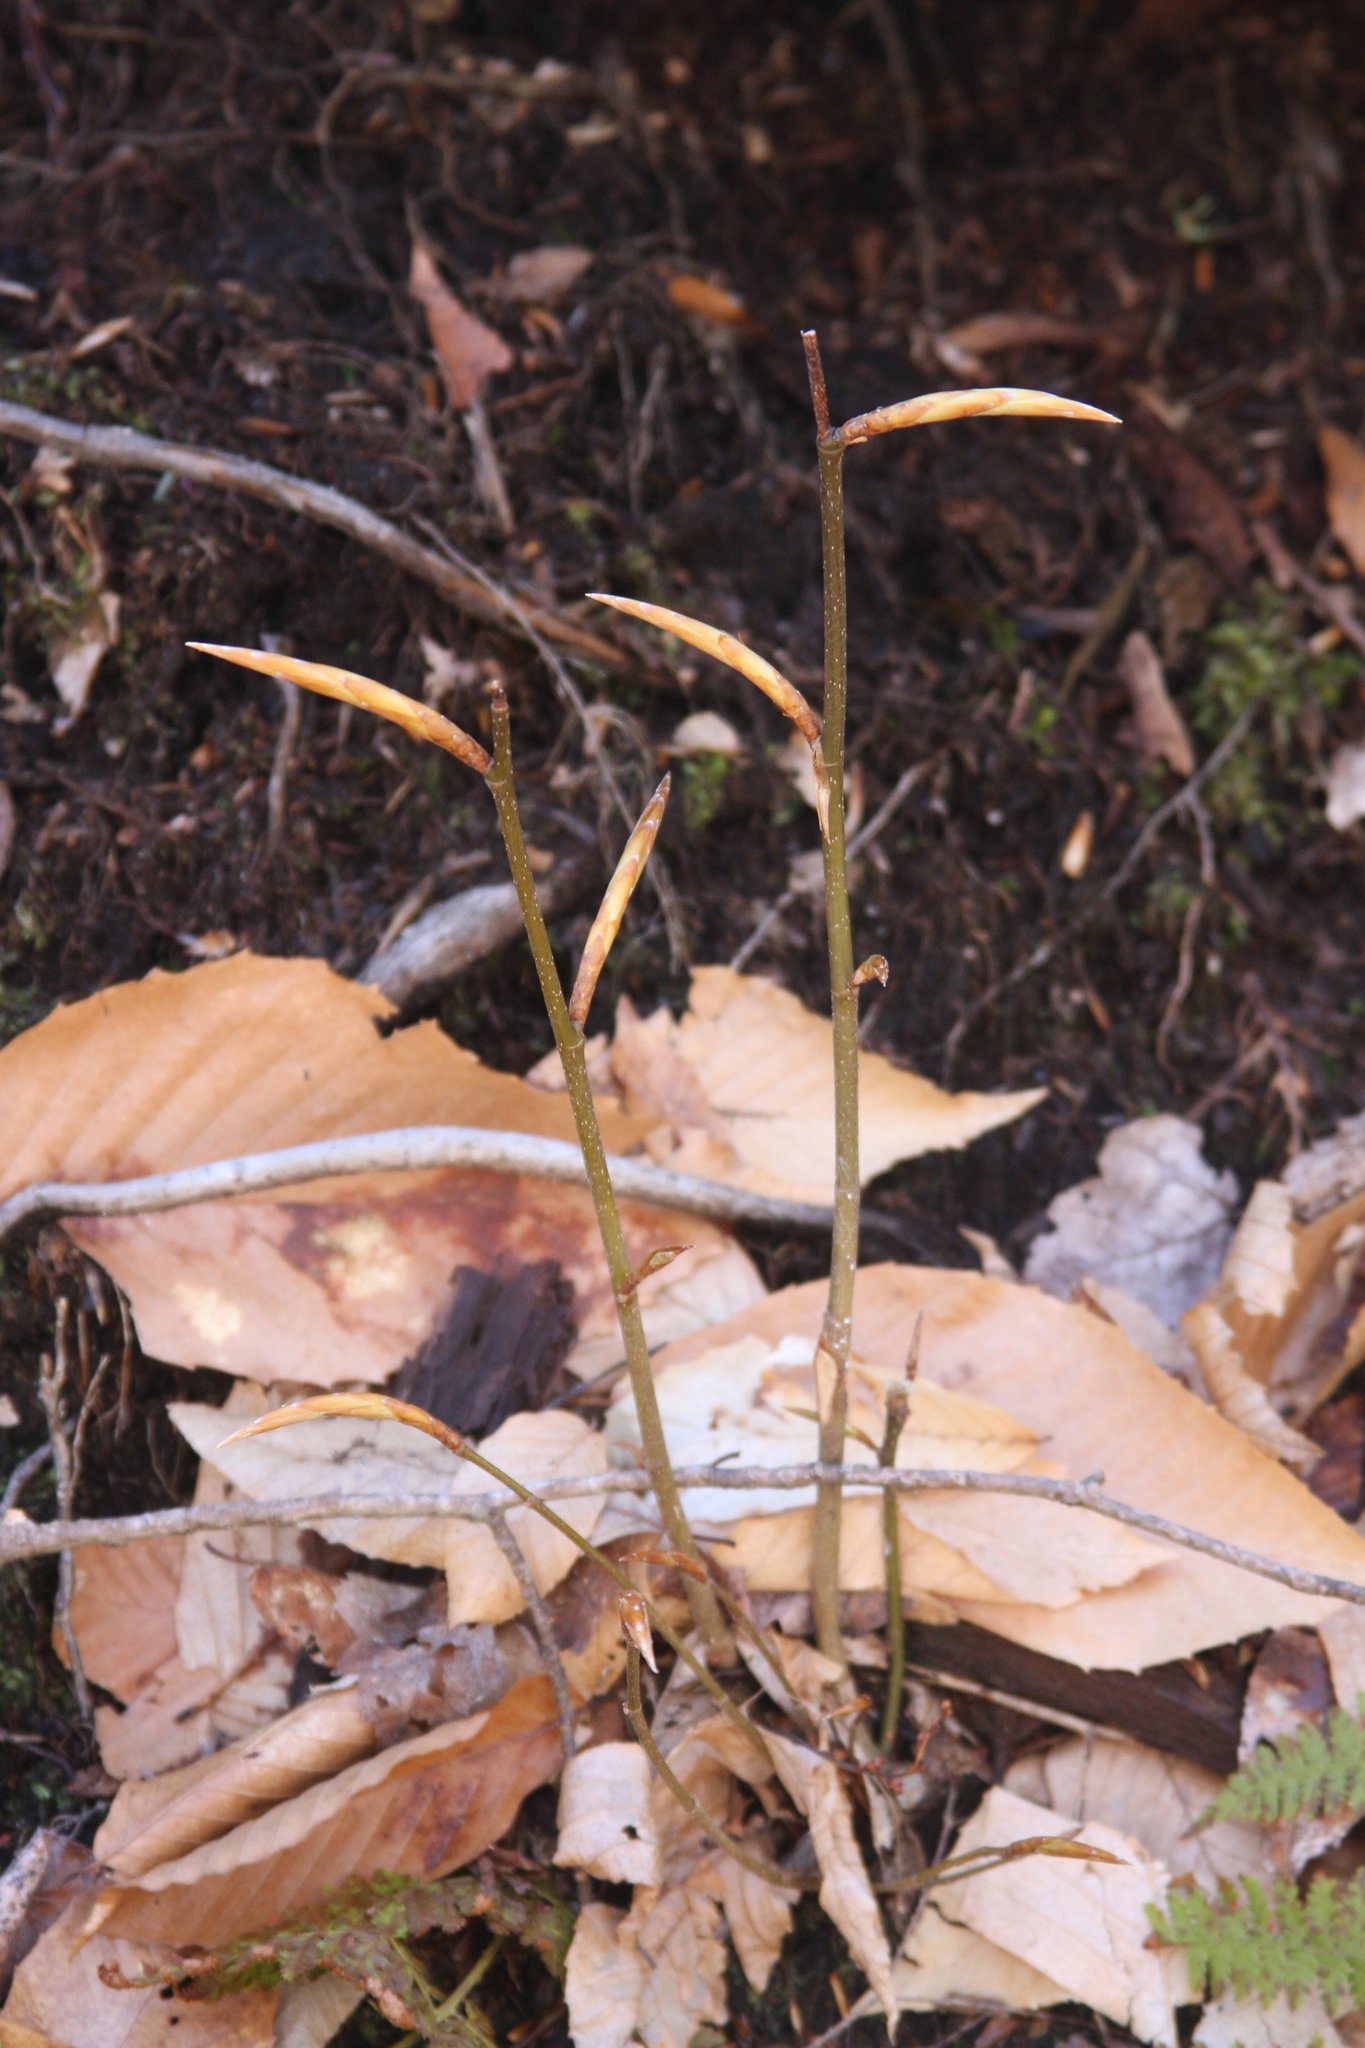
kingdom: Plantae
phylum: Tracheophyta
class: Magnoliopsida
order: Fagales
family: Fagaceae
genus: Fagus
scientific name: Fagus grandifolia
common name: American beech
